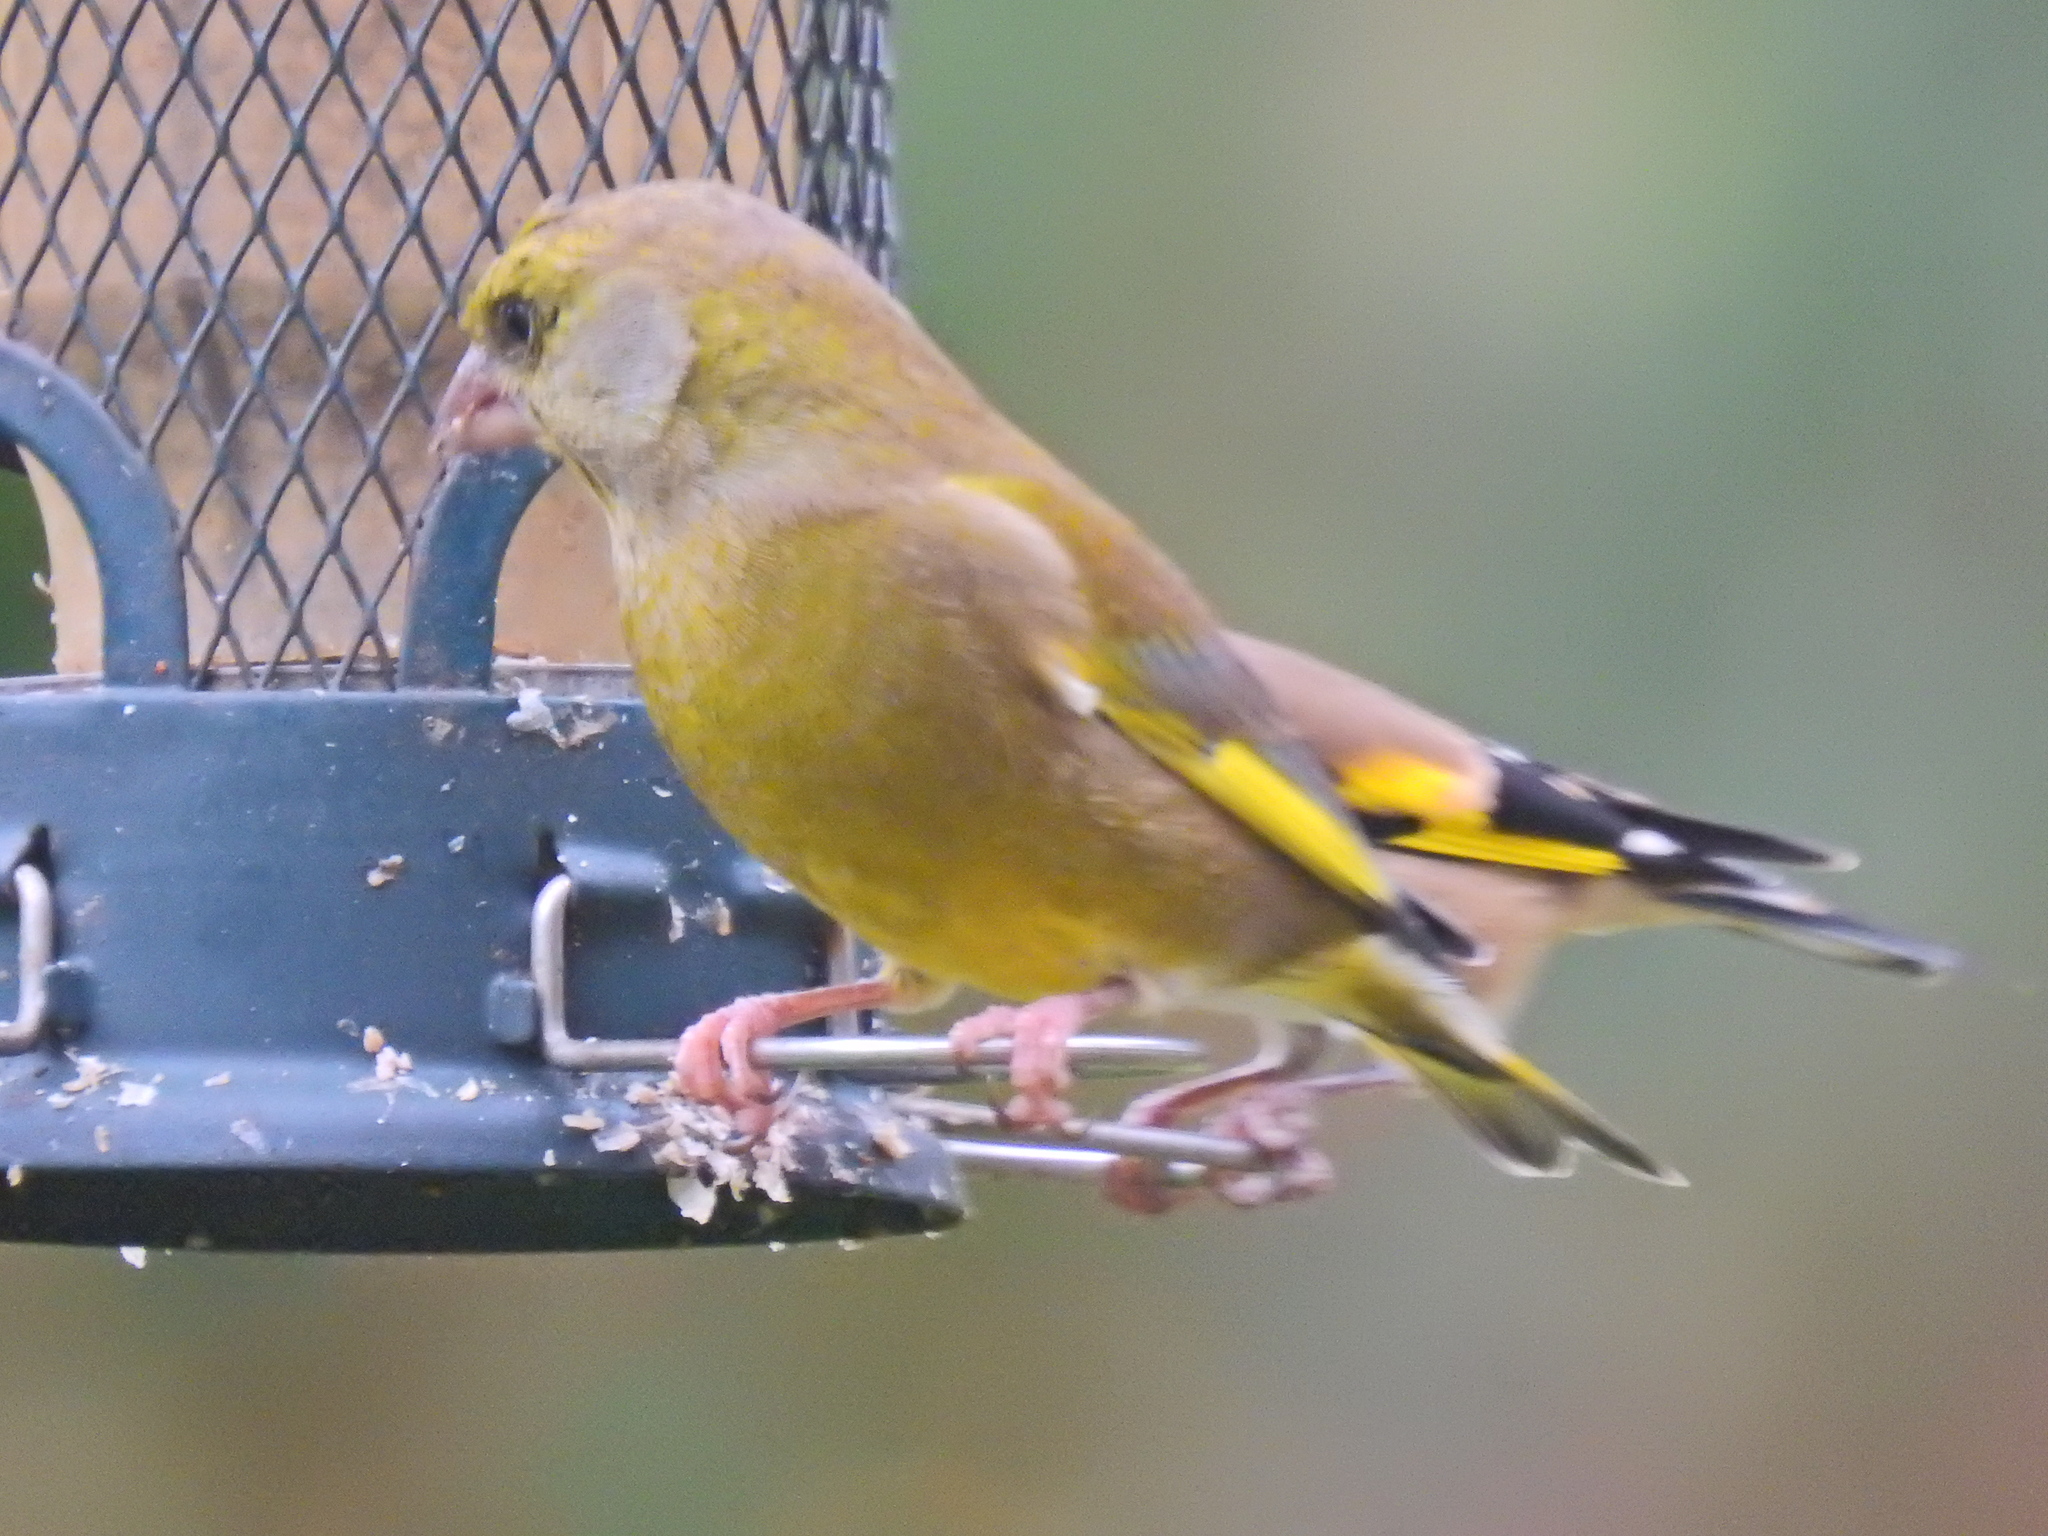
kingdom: Plantae
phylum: Tracheophyta
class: Liliopsida
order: Poales
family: Poaceae
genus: Chloris
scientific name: Chloris chloris
